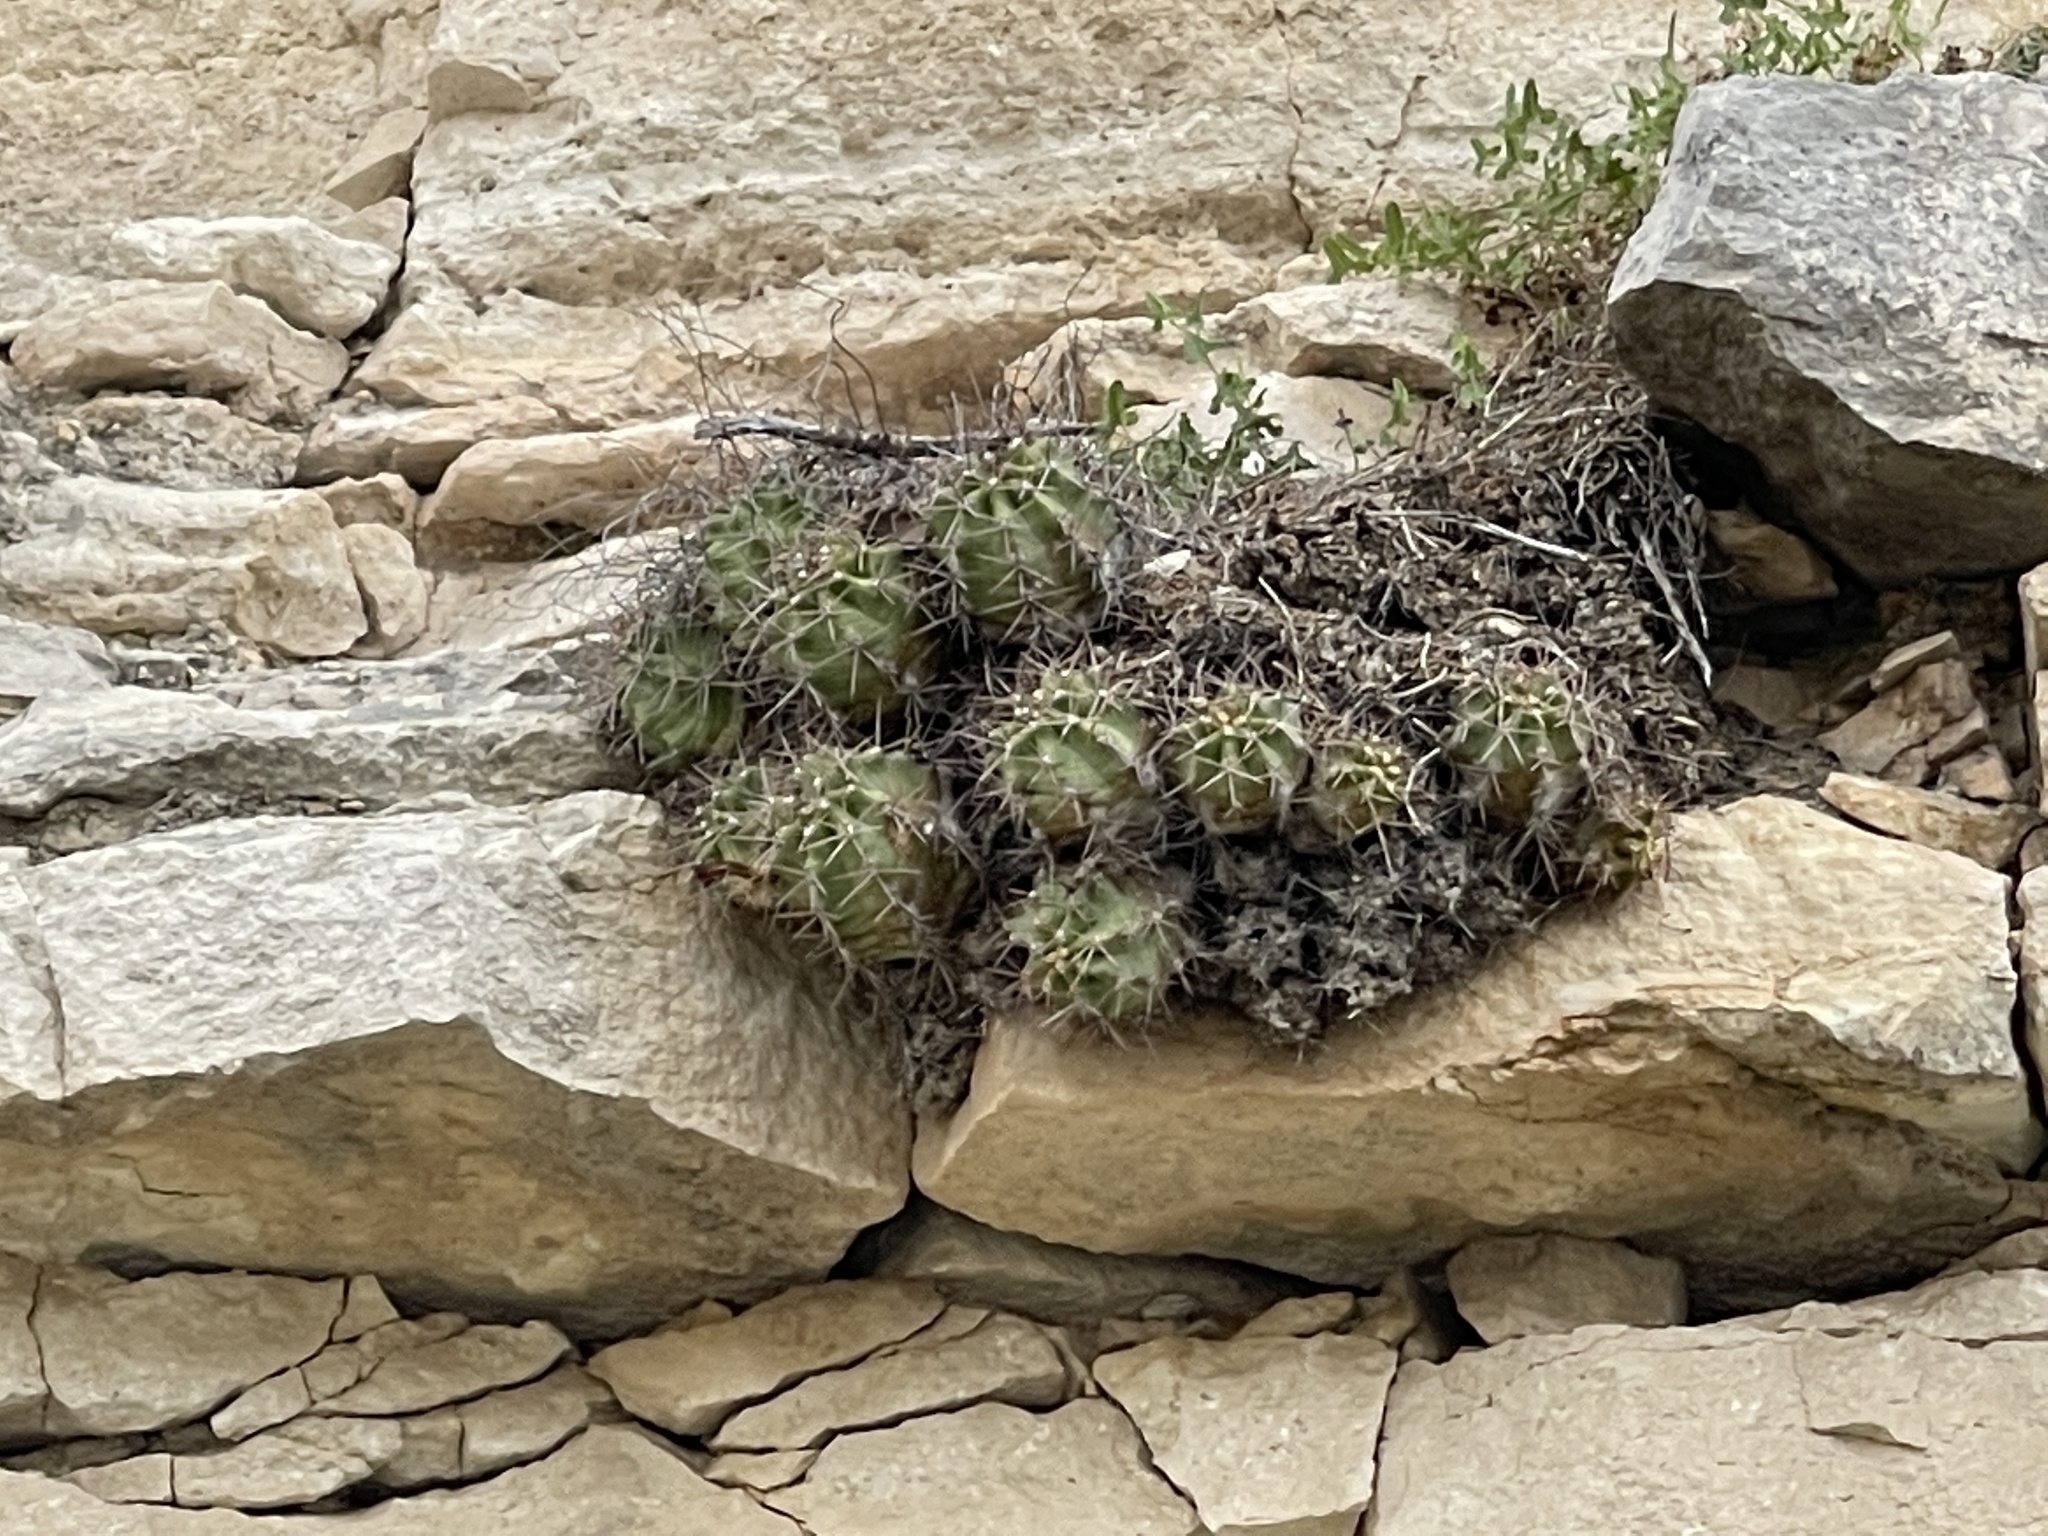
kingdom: Plantae
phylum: Tracheophyta
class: Magnoliopsida
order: Caryophyllales
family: Cactaceae
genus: Echinocereus
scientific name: Echinocereus coccineus
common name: Scarlet hedgehog cactus
